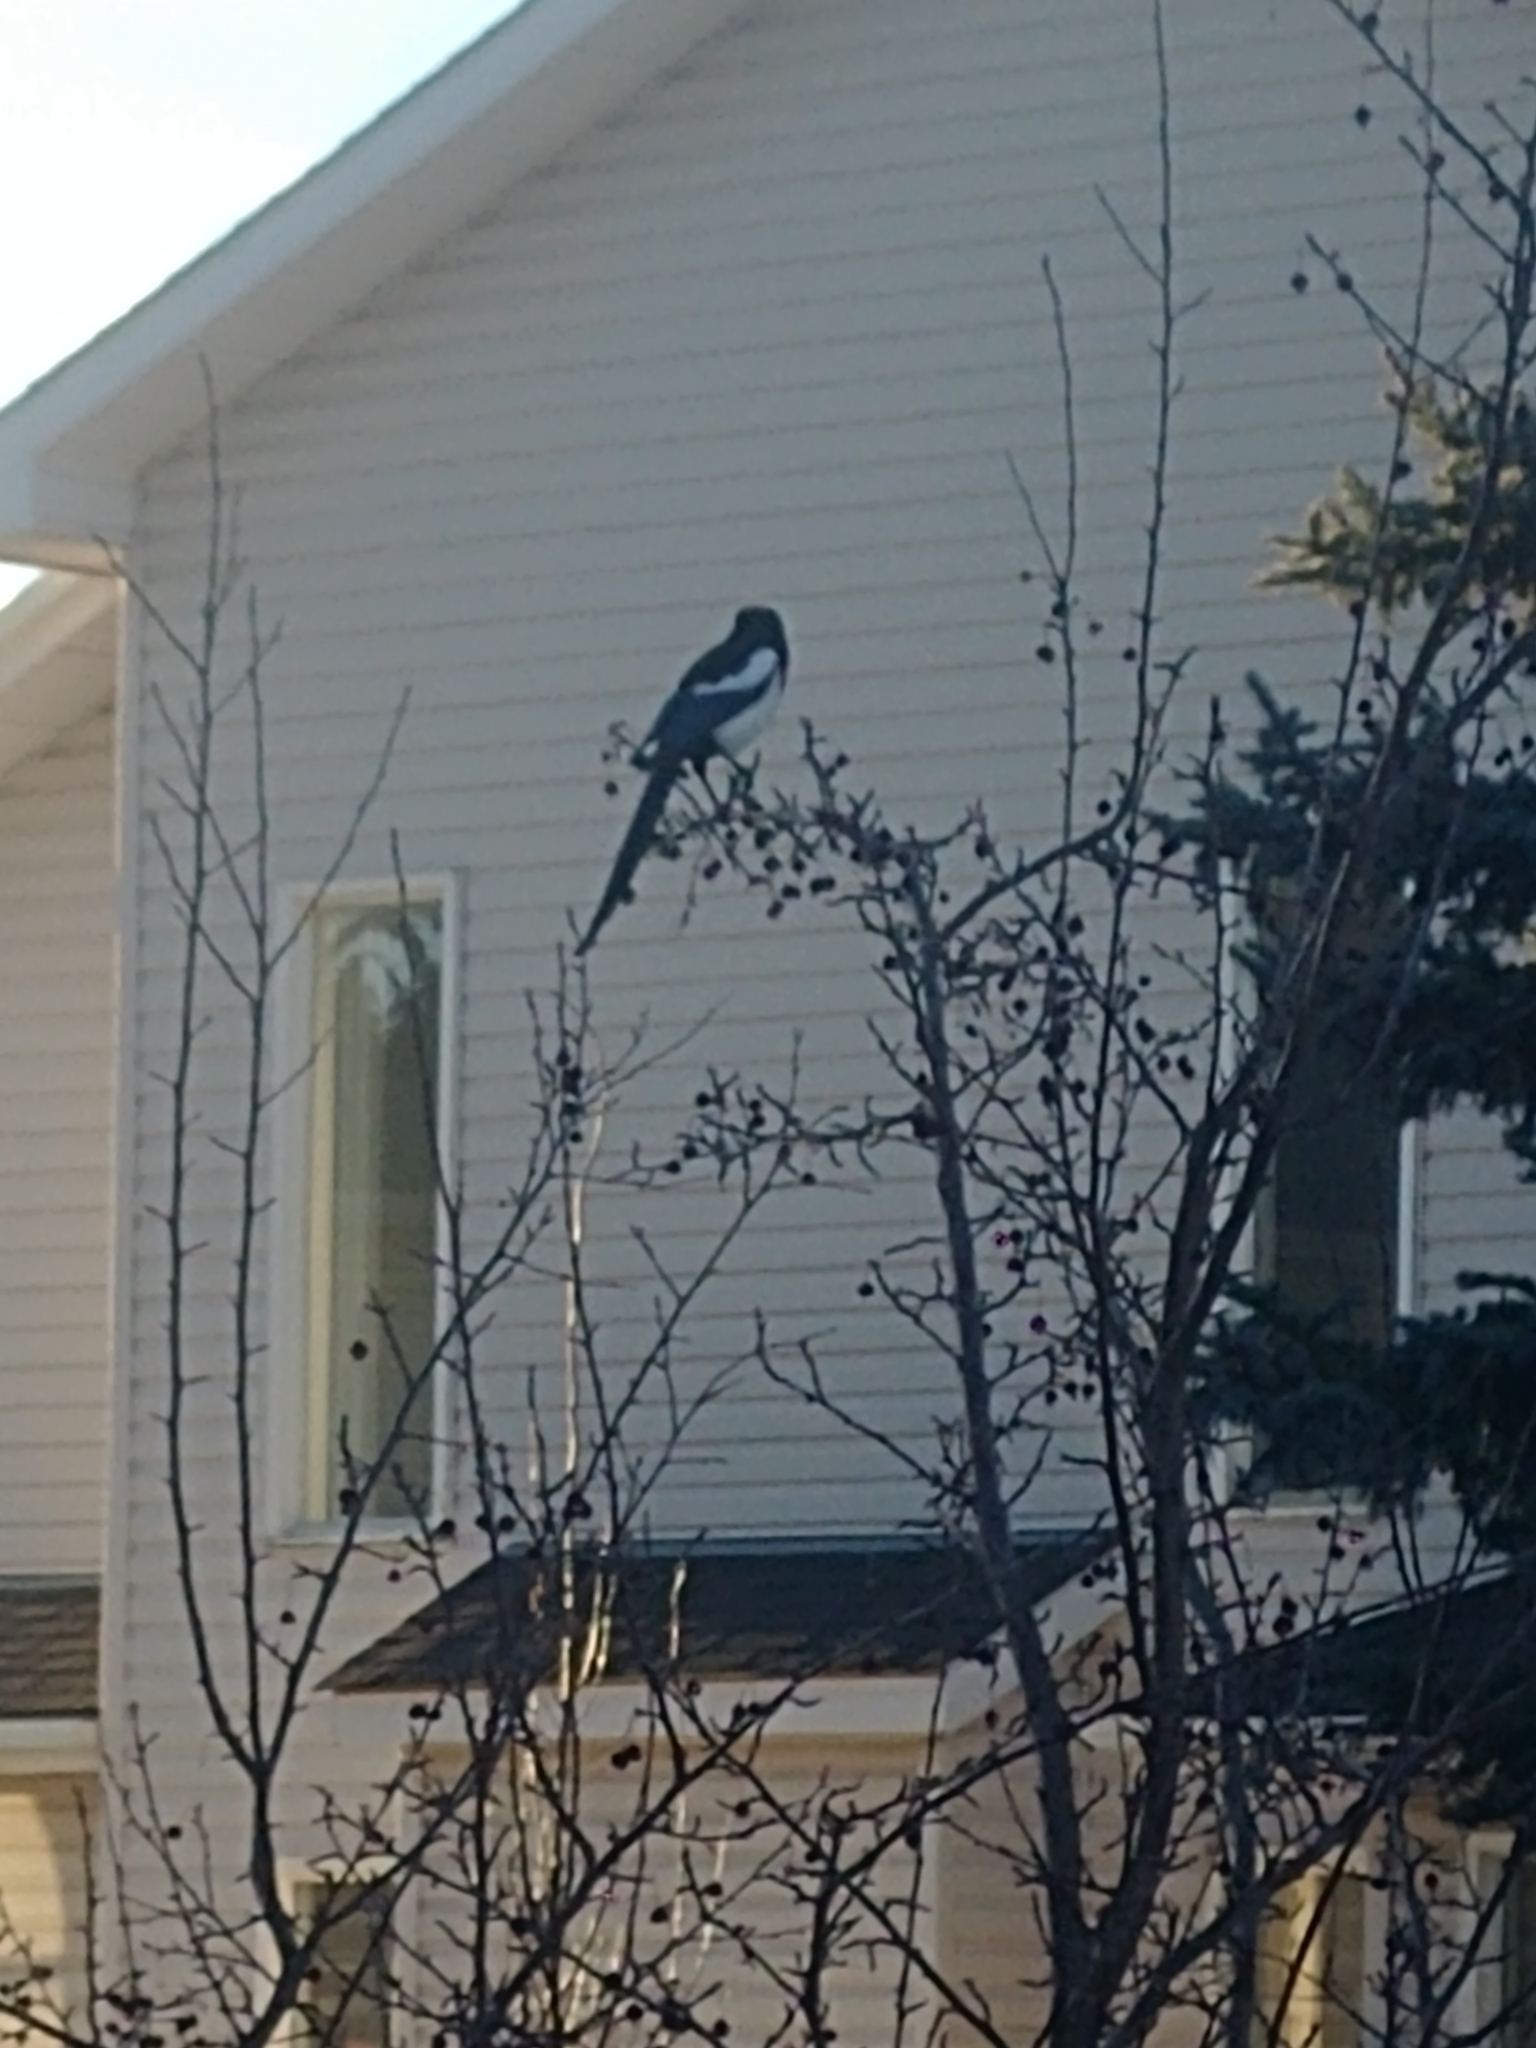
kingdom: Animalia
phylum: Chordata
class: Aves
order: Passeriformes
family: Corvidae
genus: Pica
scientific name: Pica hudsonia
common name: Black-billed magpie
